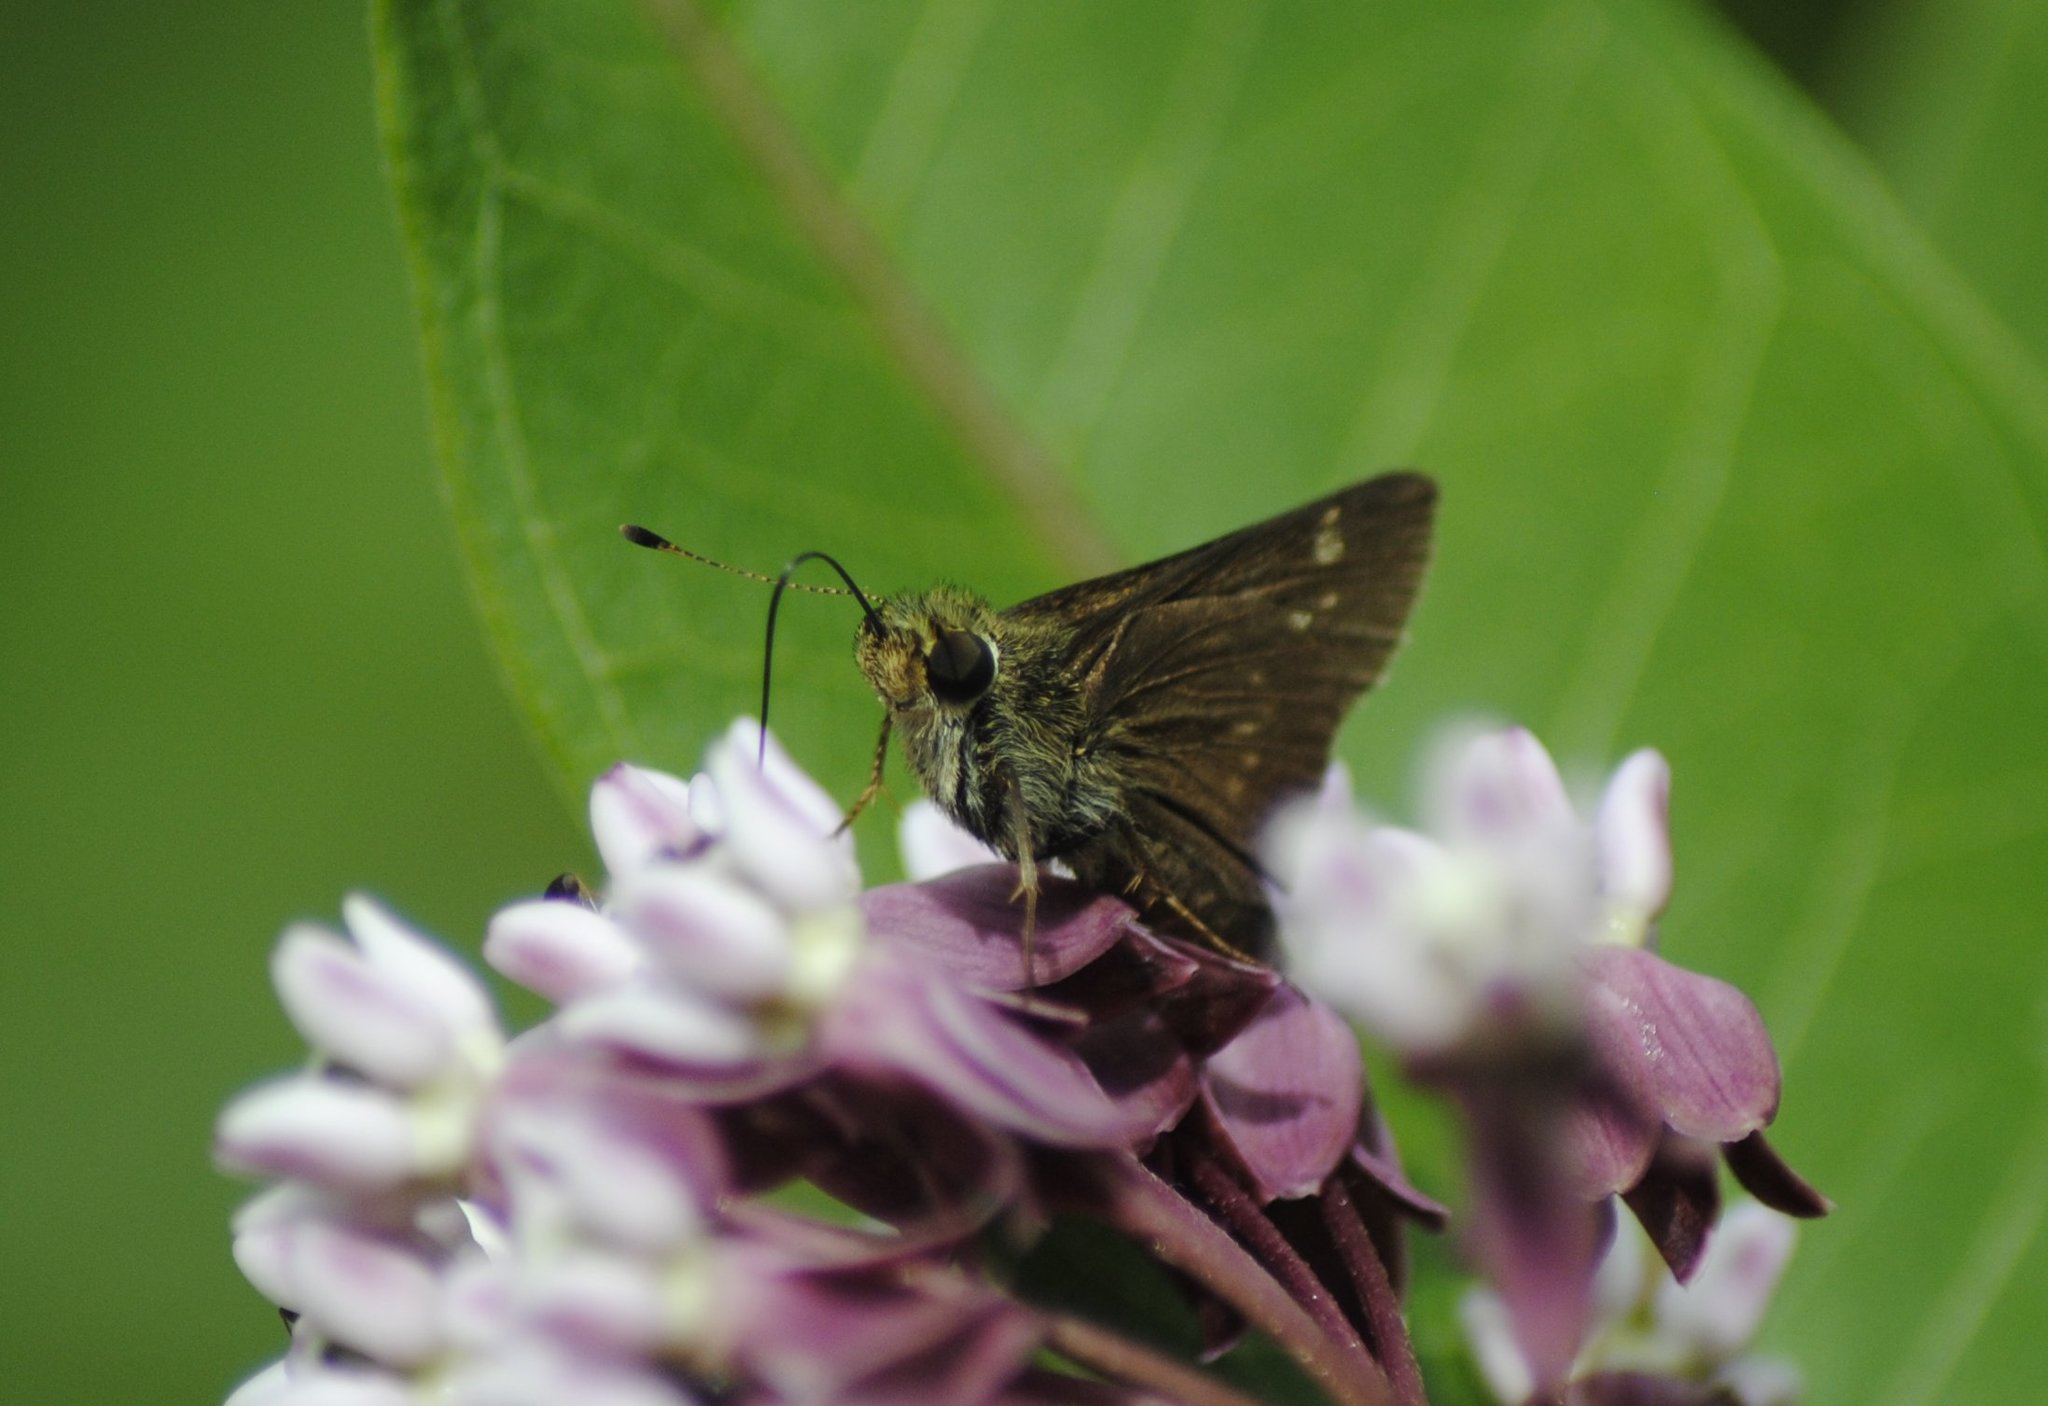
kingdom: Animalia
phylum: Arthropoda
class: Insecta
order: Lepidoptera
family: Hesperiidae
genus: Vernia
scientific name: Vernia verna
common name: Little glassywing
